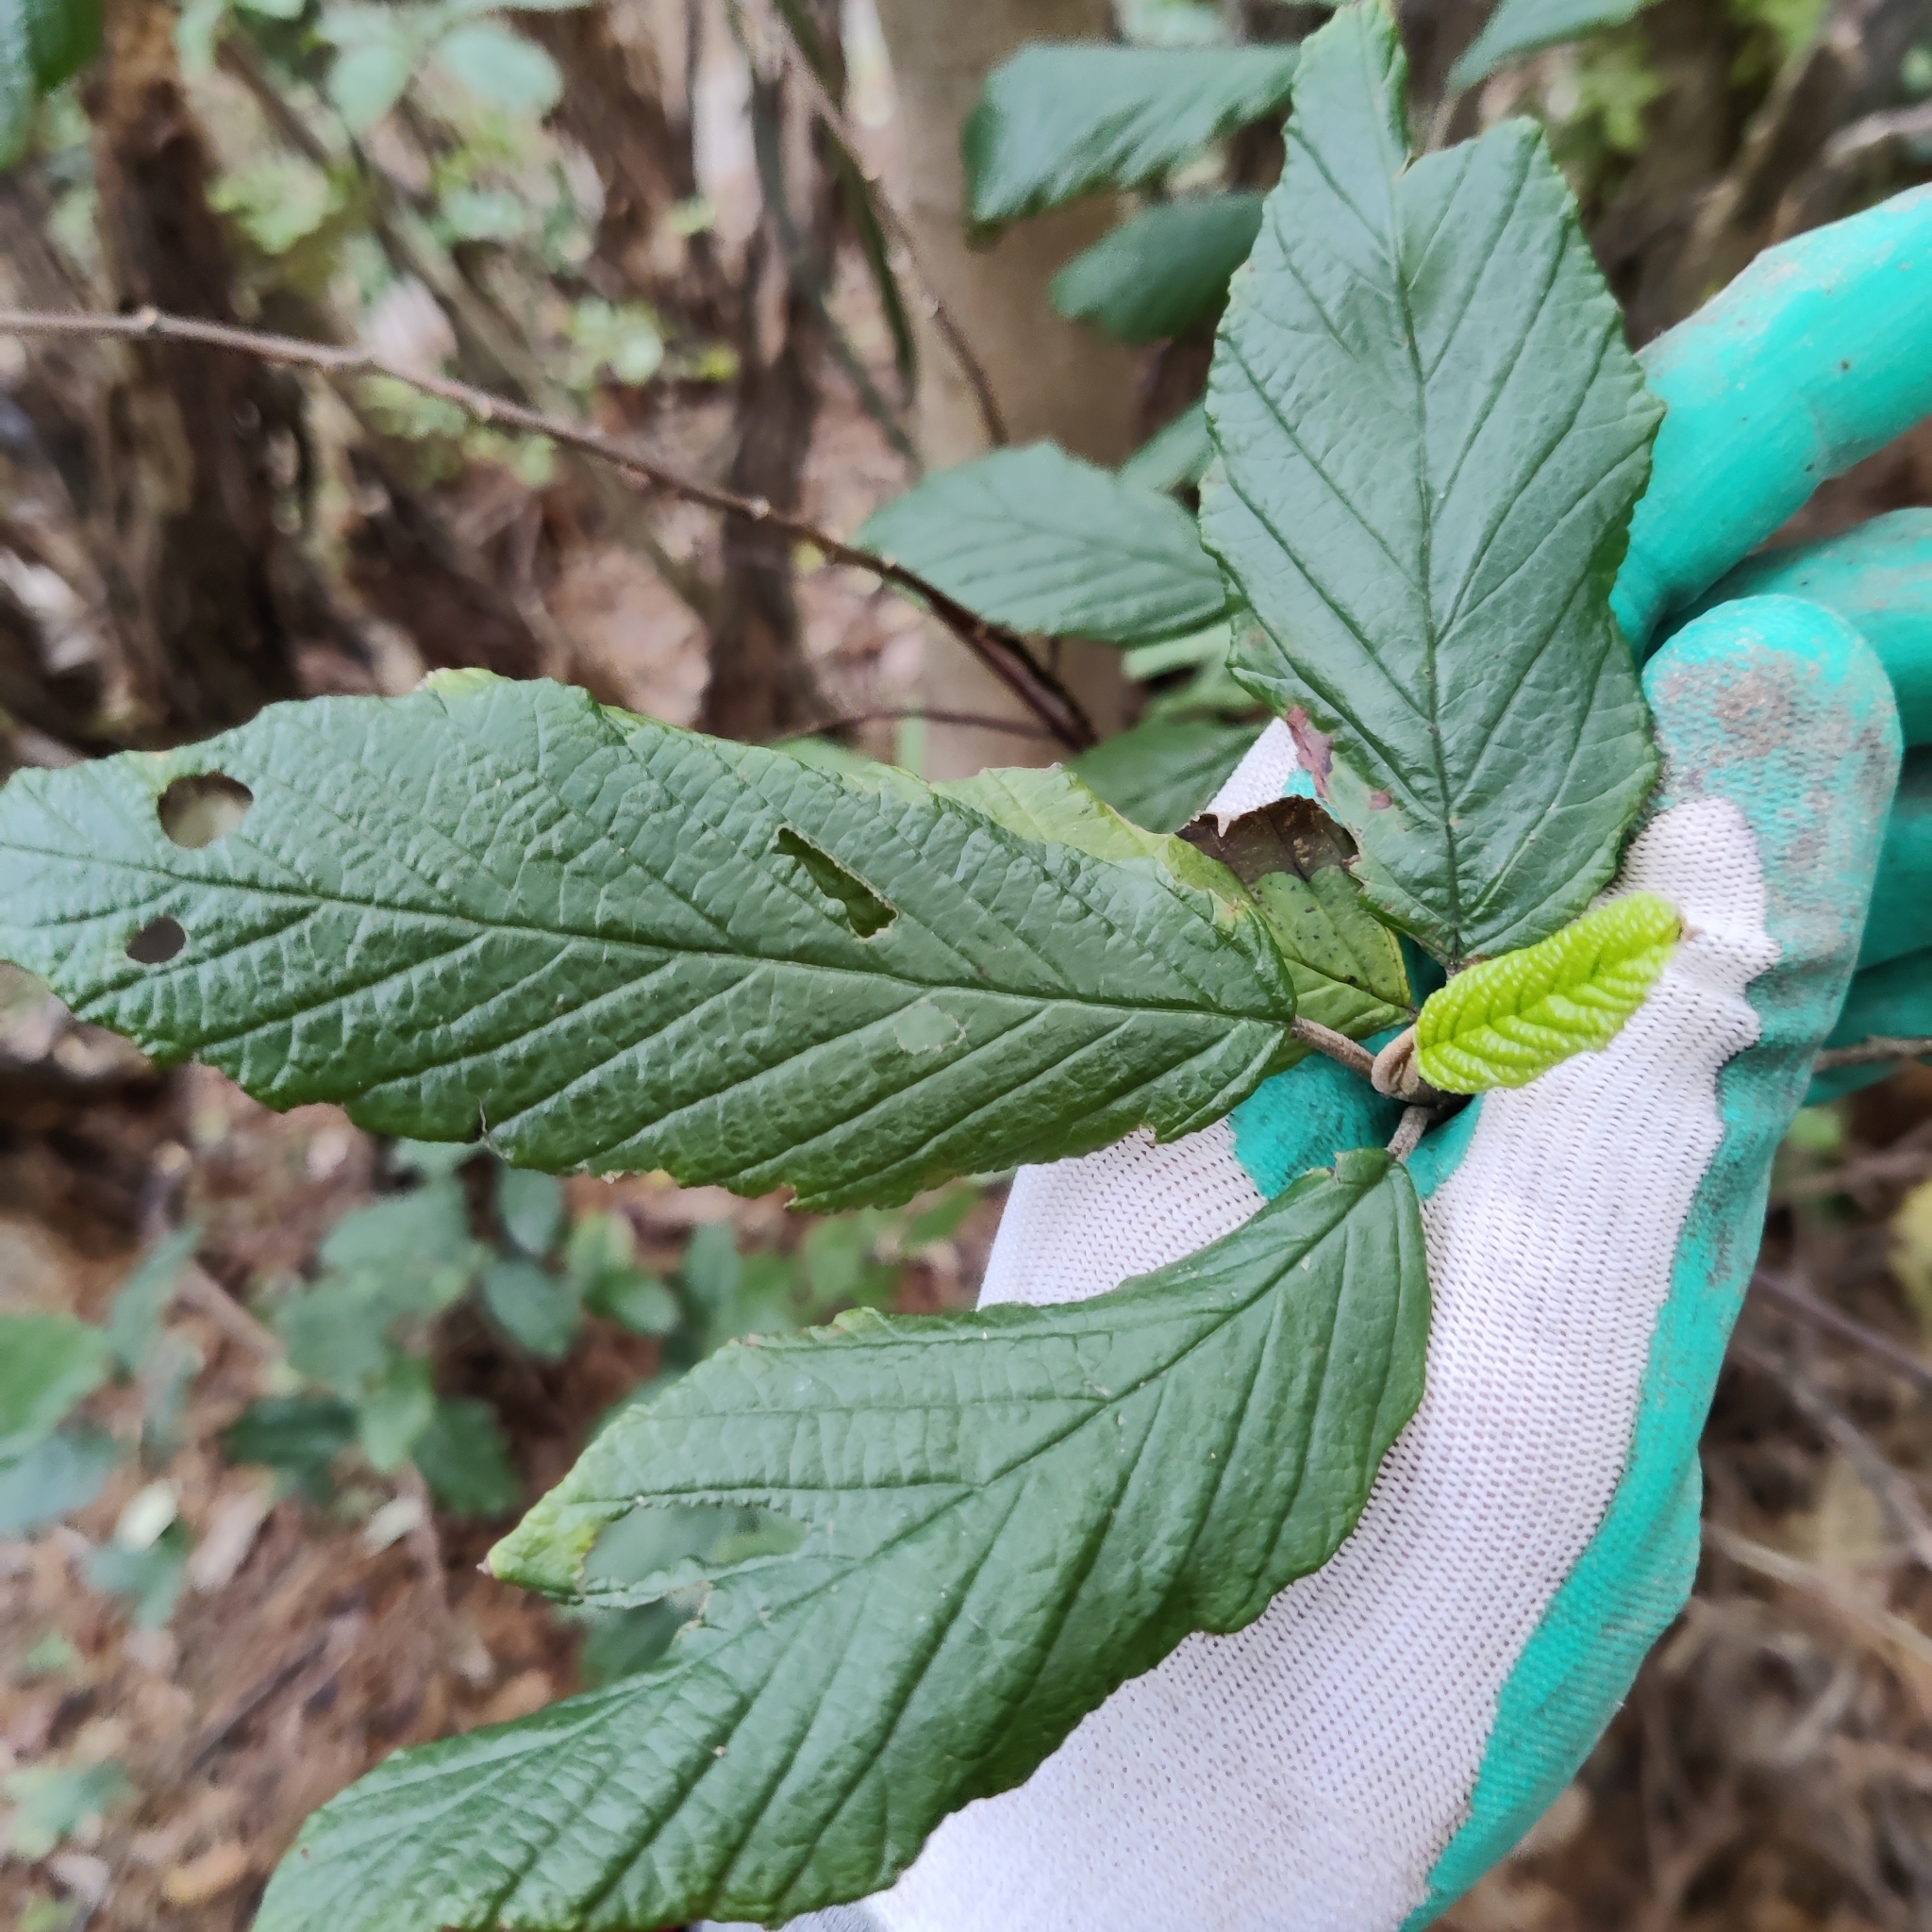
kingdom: Plantae
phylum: Tracheophyta
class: Magnoliopsida
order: Rosales
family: Rhamnaceae
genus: Pomaderris
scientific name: Pomaderris aspera
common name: Hazel pomaderris
